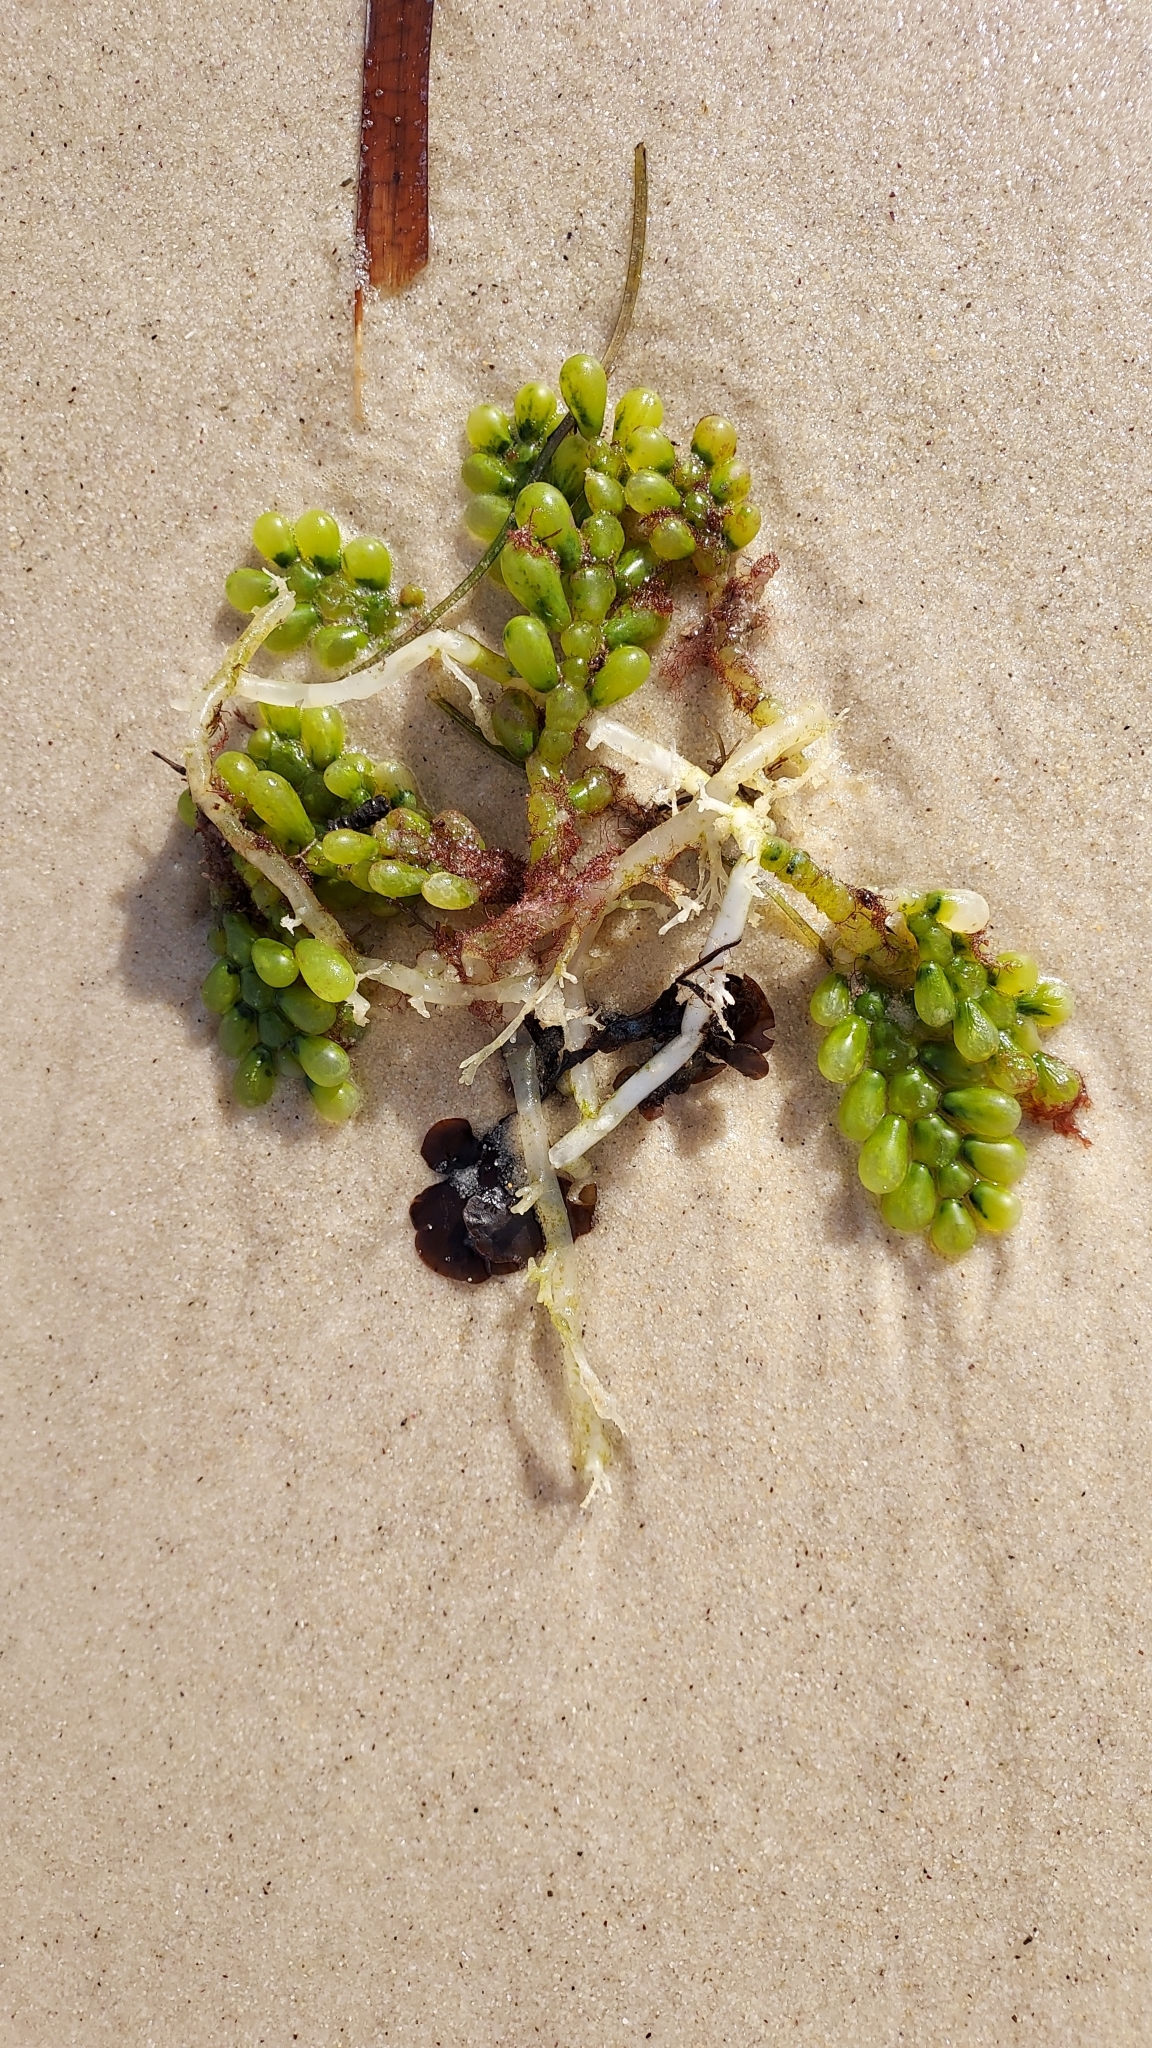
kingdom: Plantae
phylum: Chlorophyta
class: Ulvophyceae
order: Bryopsidales
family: Caulerpaceae
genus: Caulerpa
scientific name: Caulerpa cactoides
